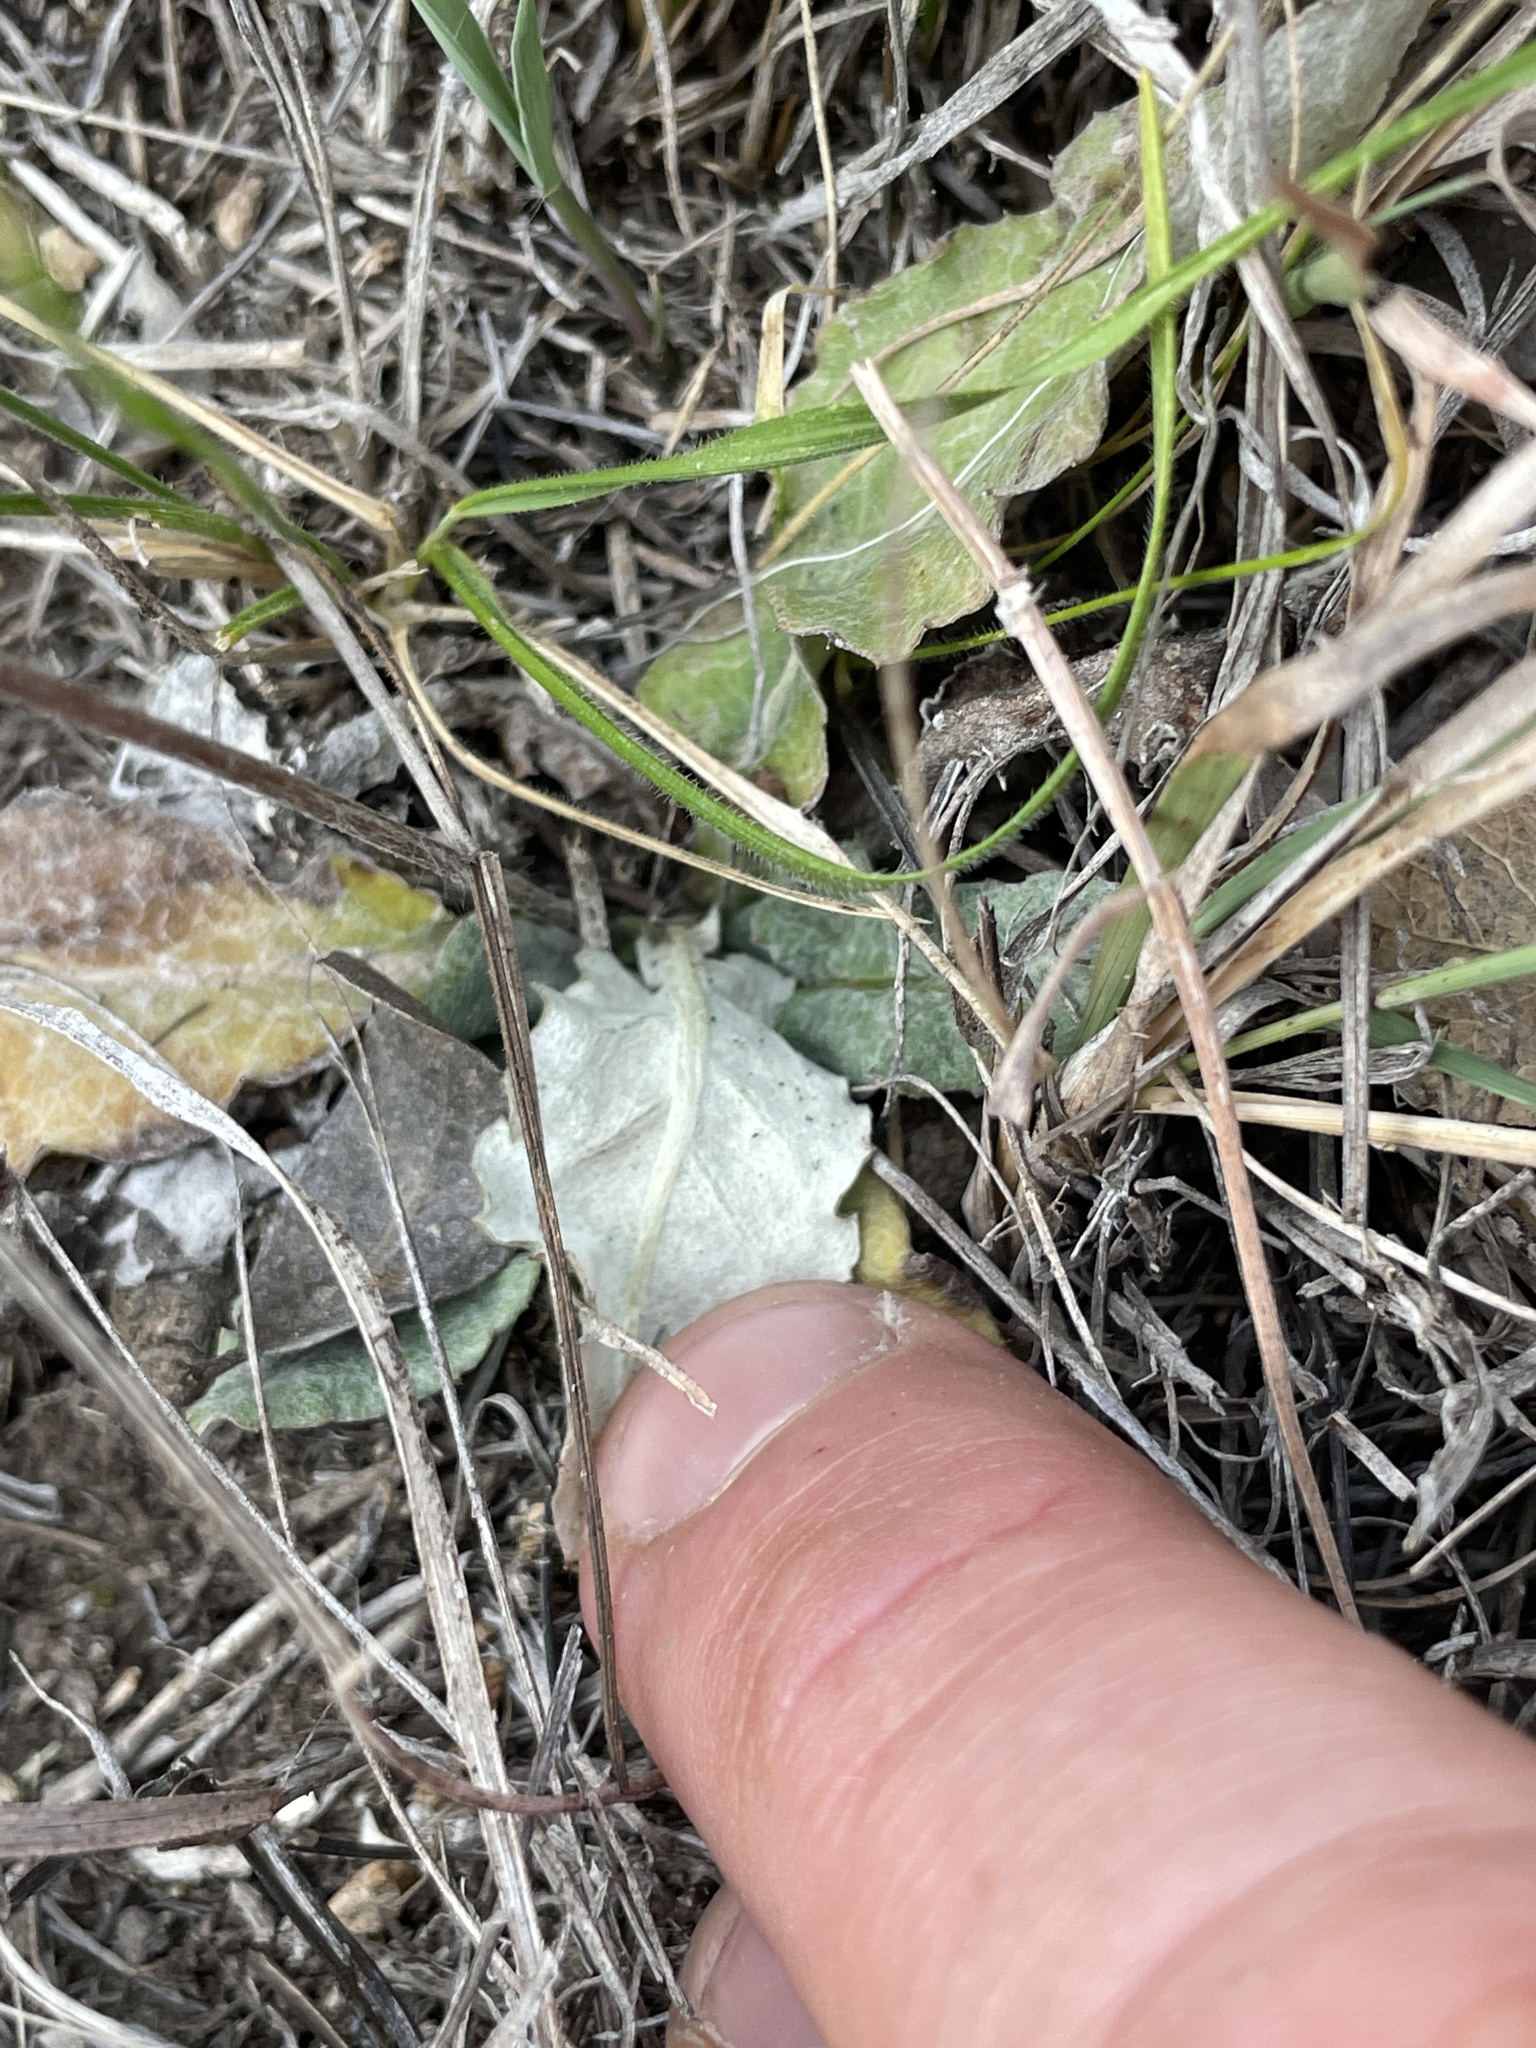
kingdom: Plantae
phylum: Tracheophyta
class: Magnoliopsida
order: Asterales
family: Asteraceae
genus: Chaptalia
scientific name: Chaptalia texana
